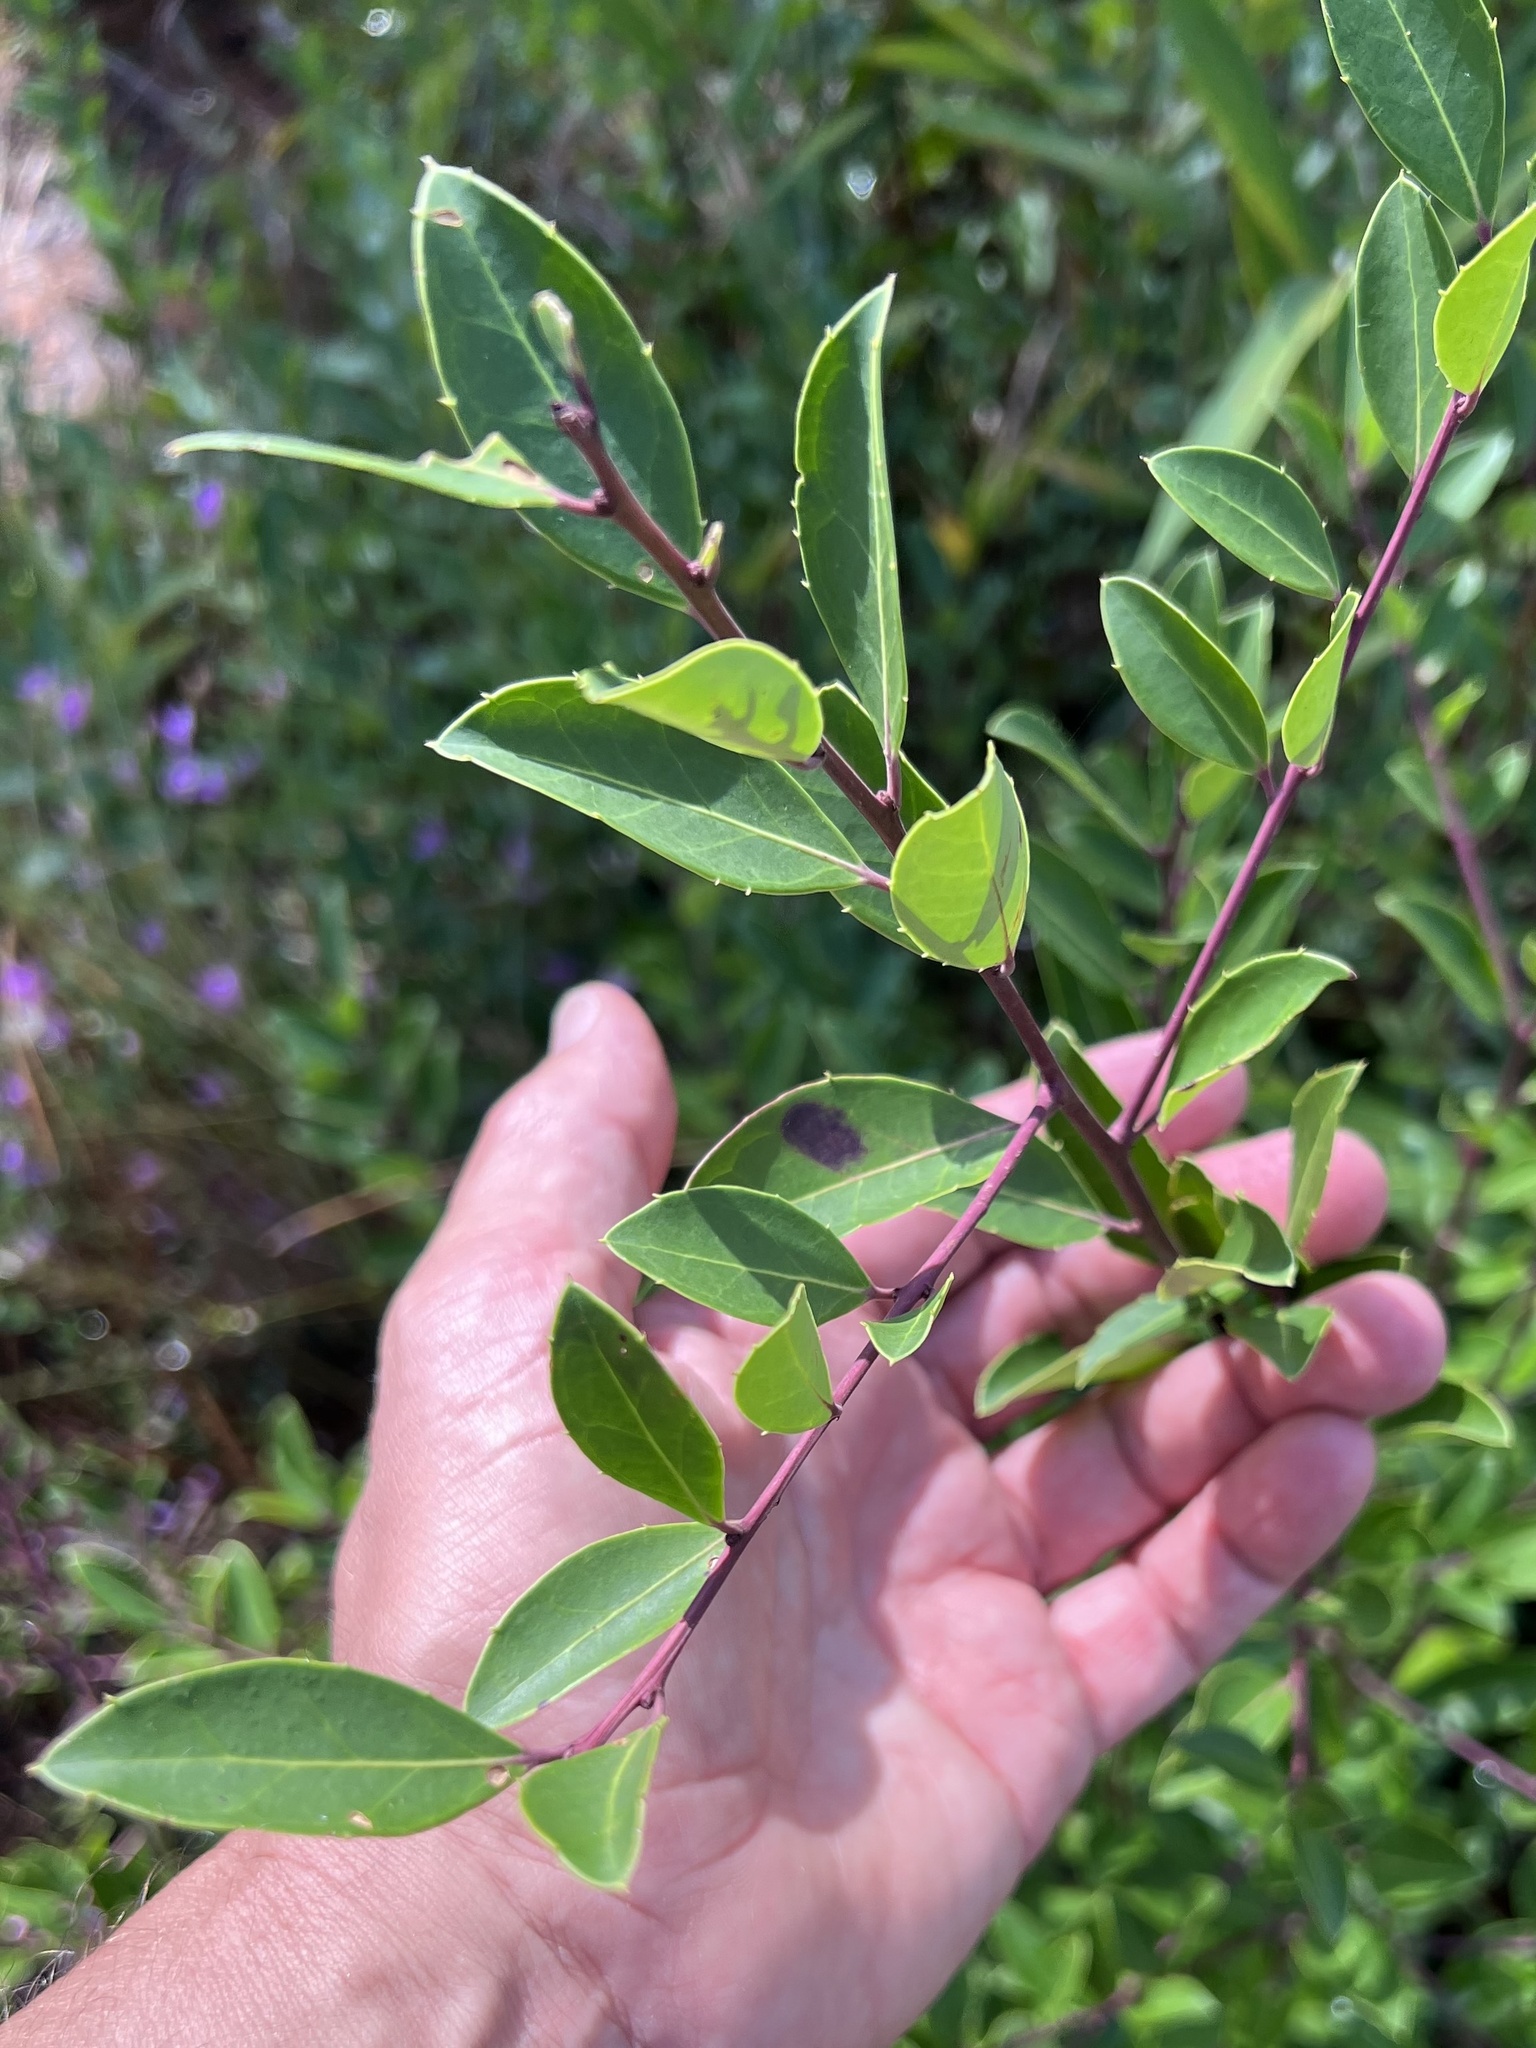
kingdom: Plantae
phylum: Tracheophyta
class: Magnoliopsida
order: Aquifoliales
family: Aquifoliaceae
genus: Ilex
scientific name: Ilex coriacea
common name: Sweet gallberry
